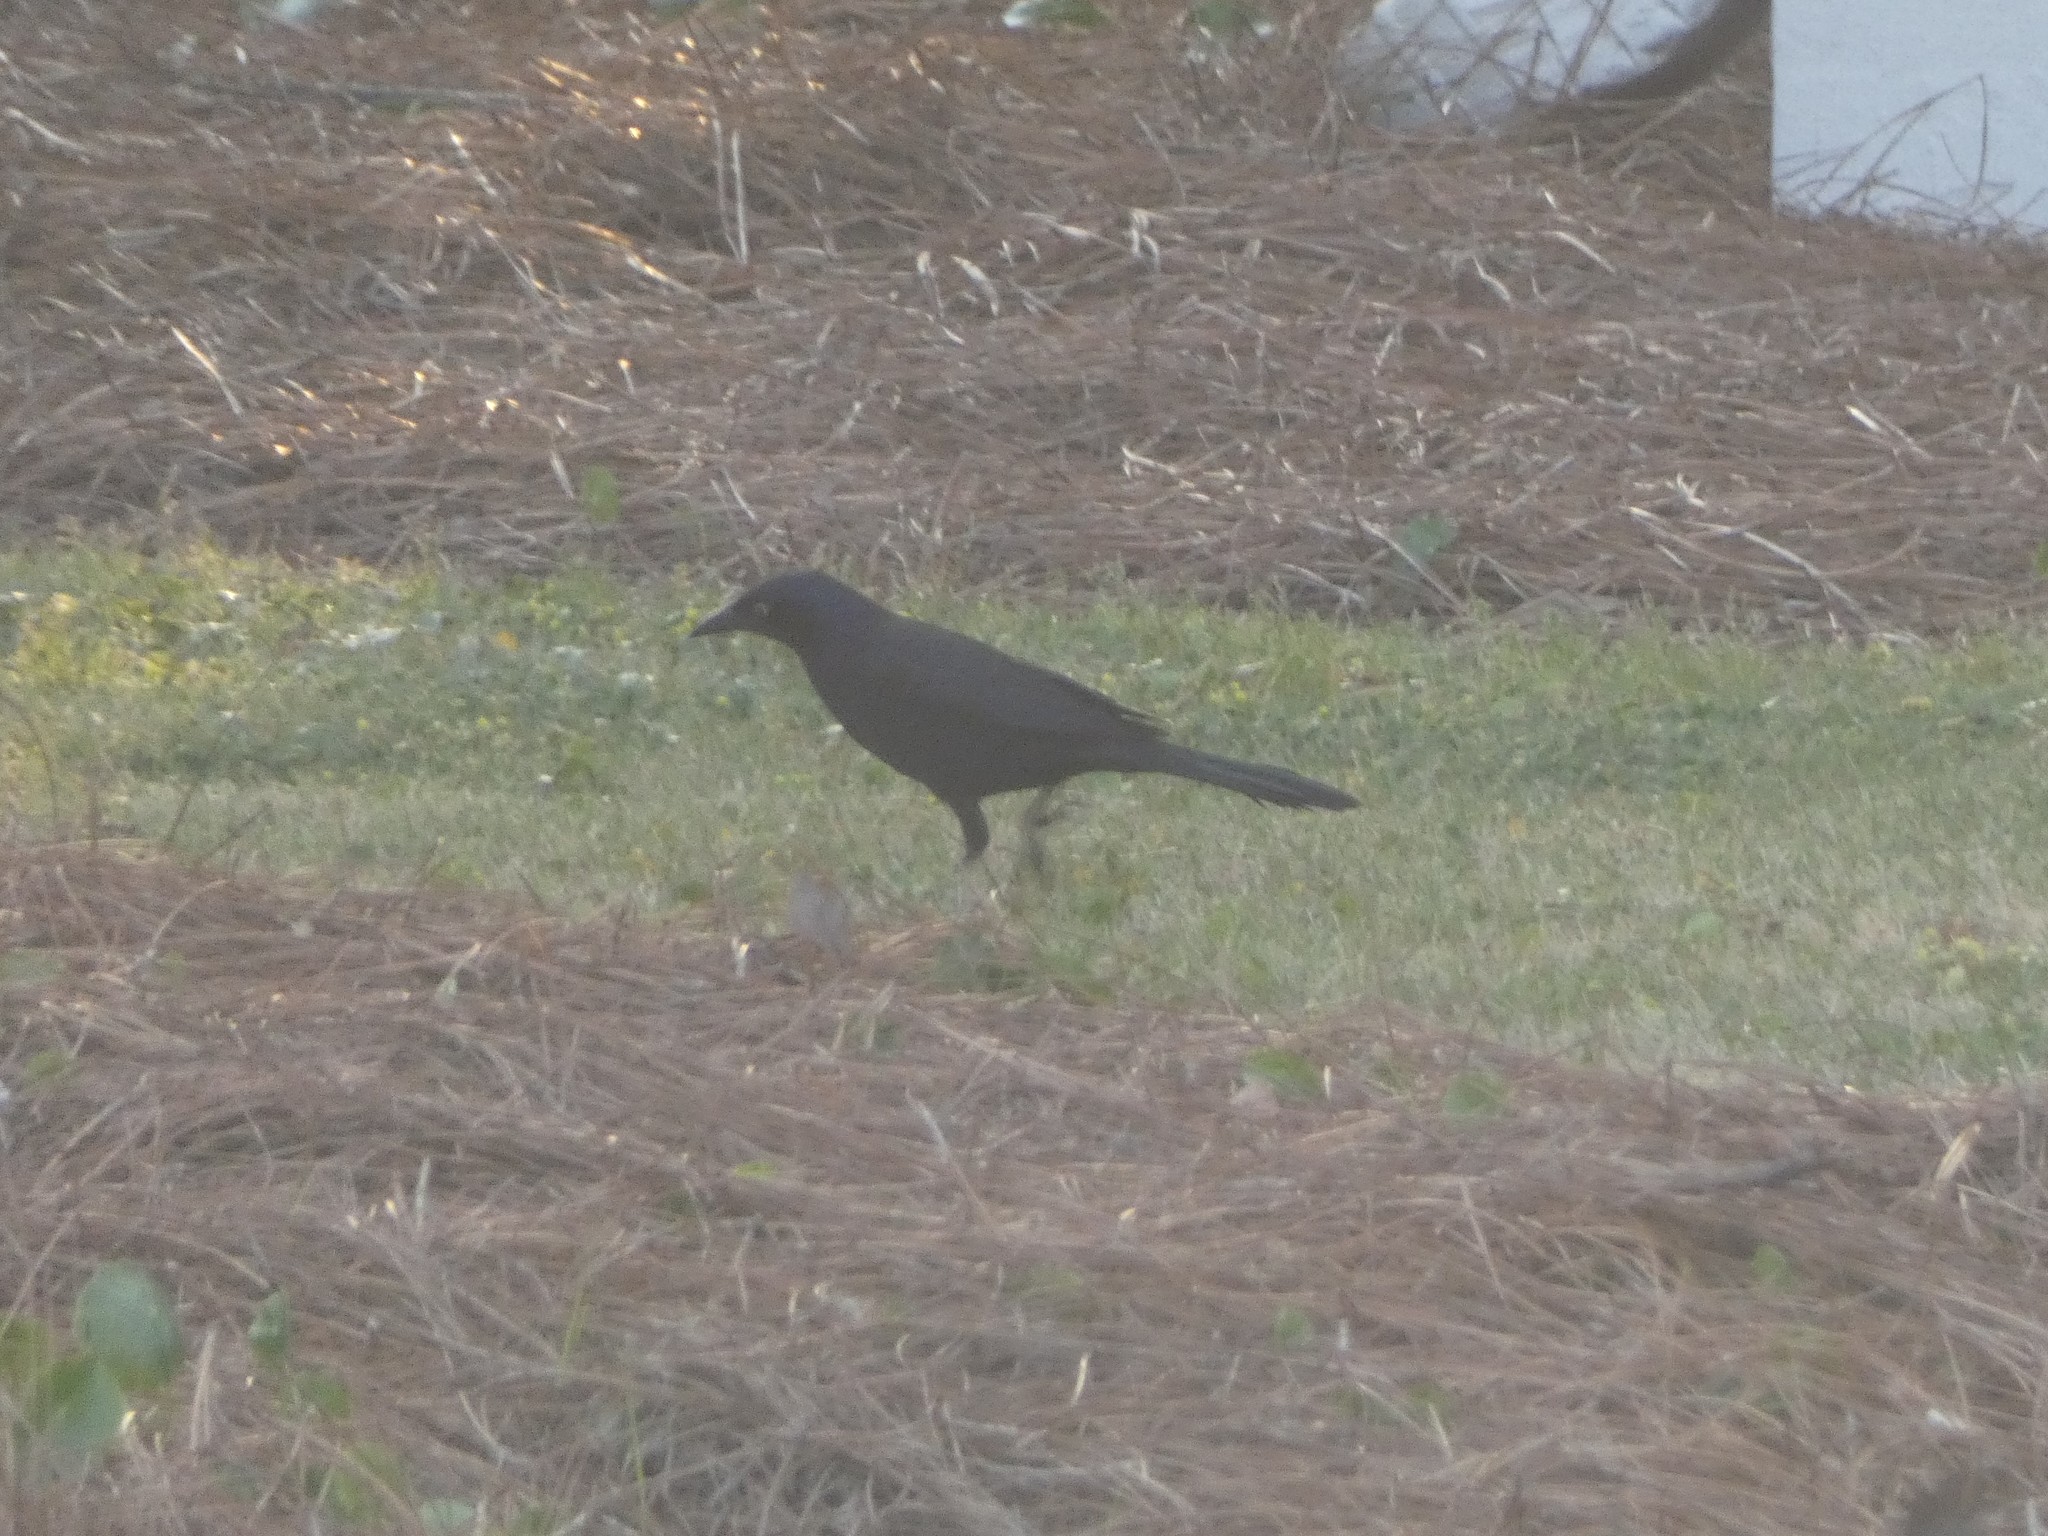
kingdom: Animalia
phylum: Chordata
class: Aves
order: Passeriformes
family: Icteridae
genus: Quiscalus
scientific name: Quiscalus quiscula
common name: Common grackle
